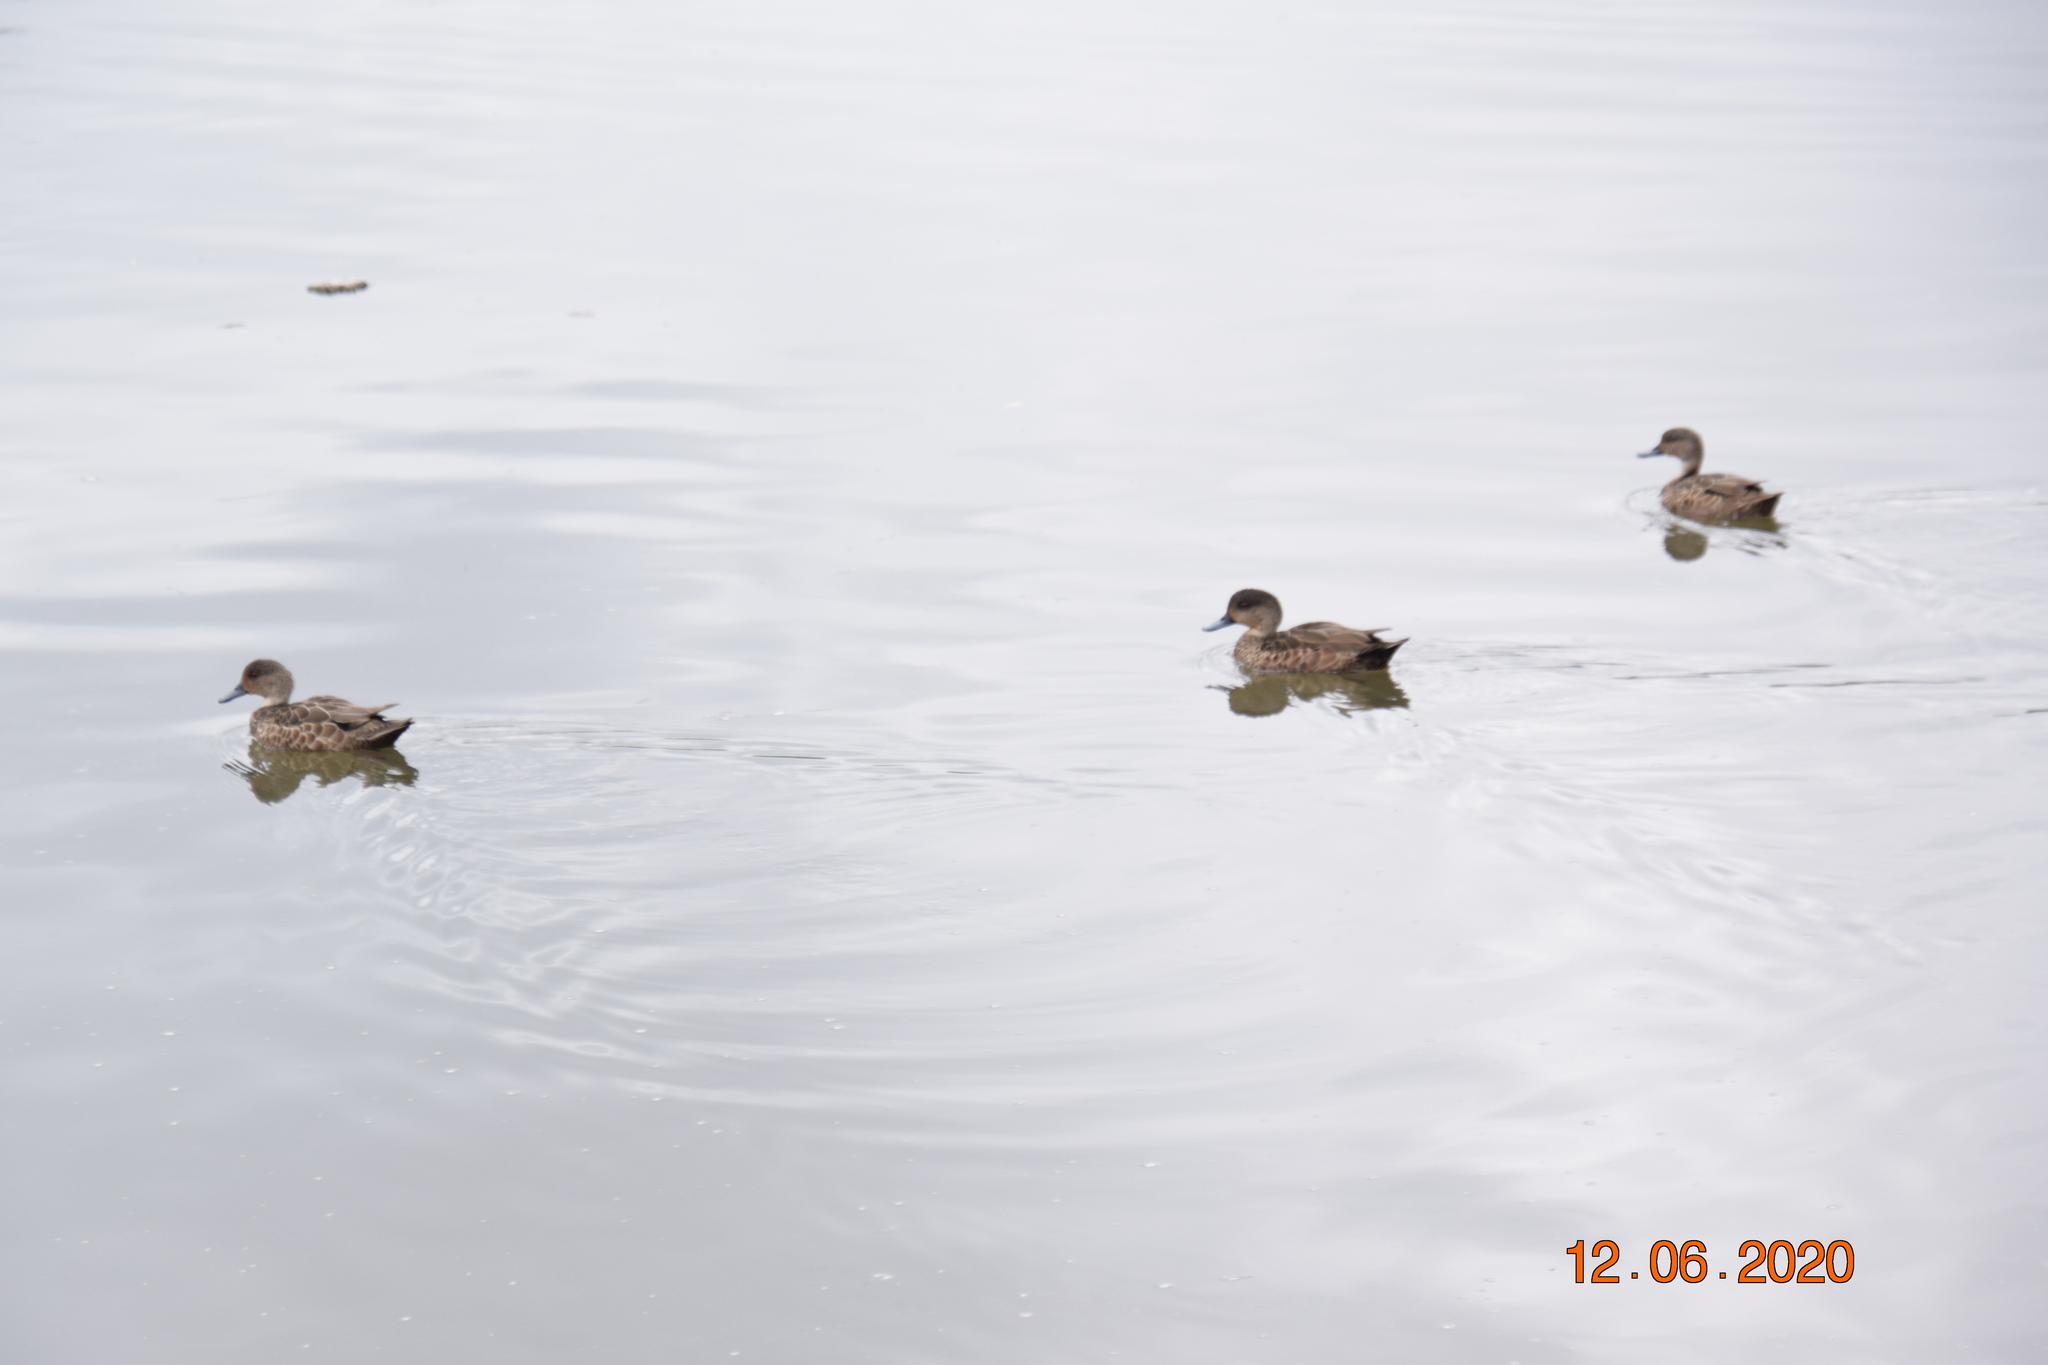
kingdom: Animalia
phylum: Chordata
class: Aves
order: Anseriformes
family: Anatidae
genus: Anas
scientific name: Anas castanea
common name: Chestnut teal
